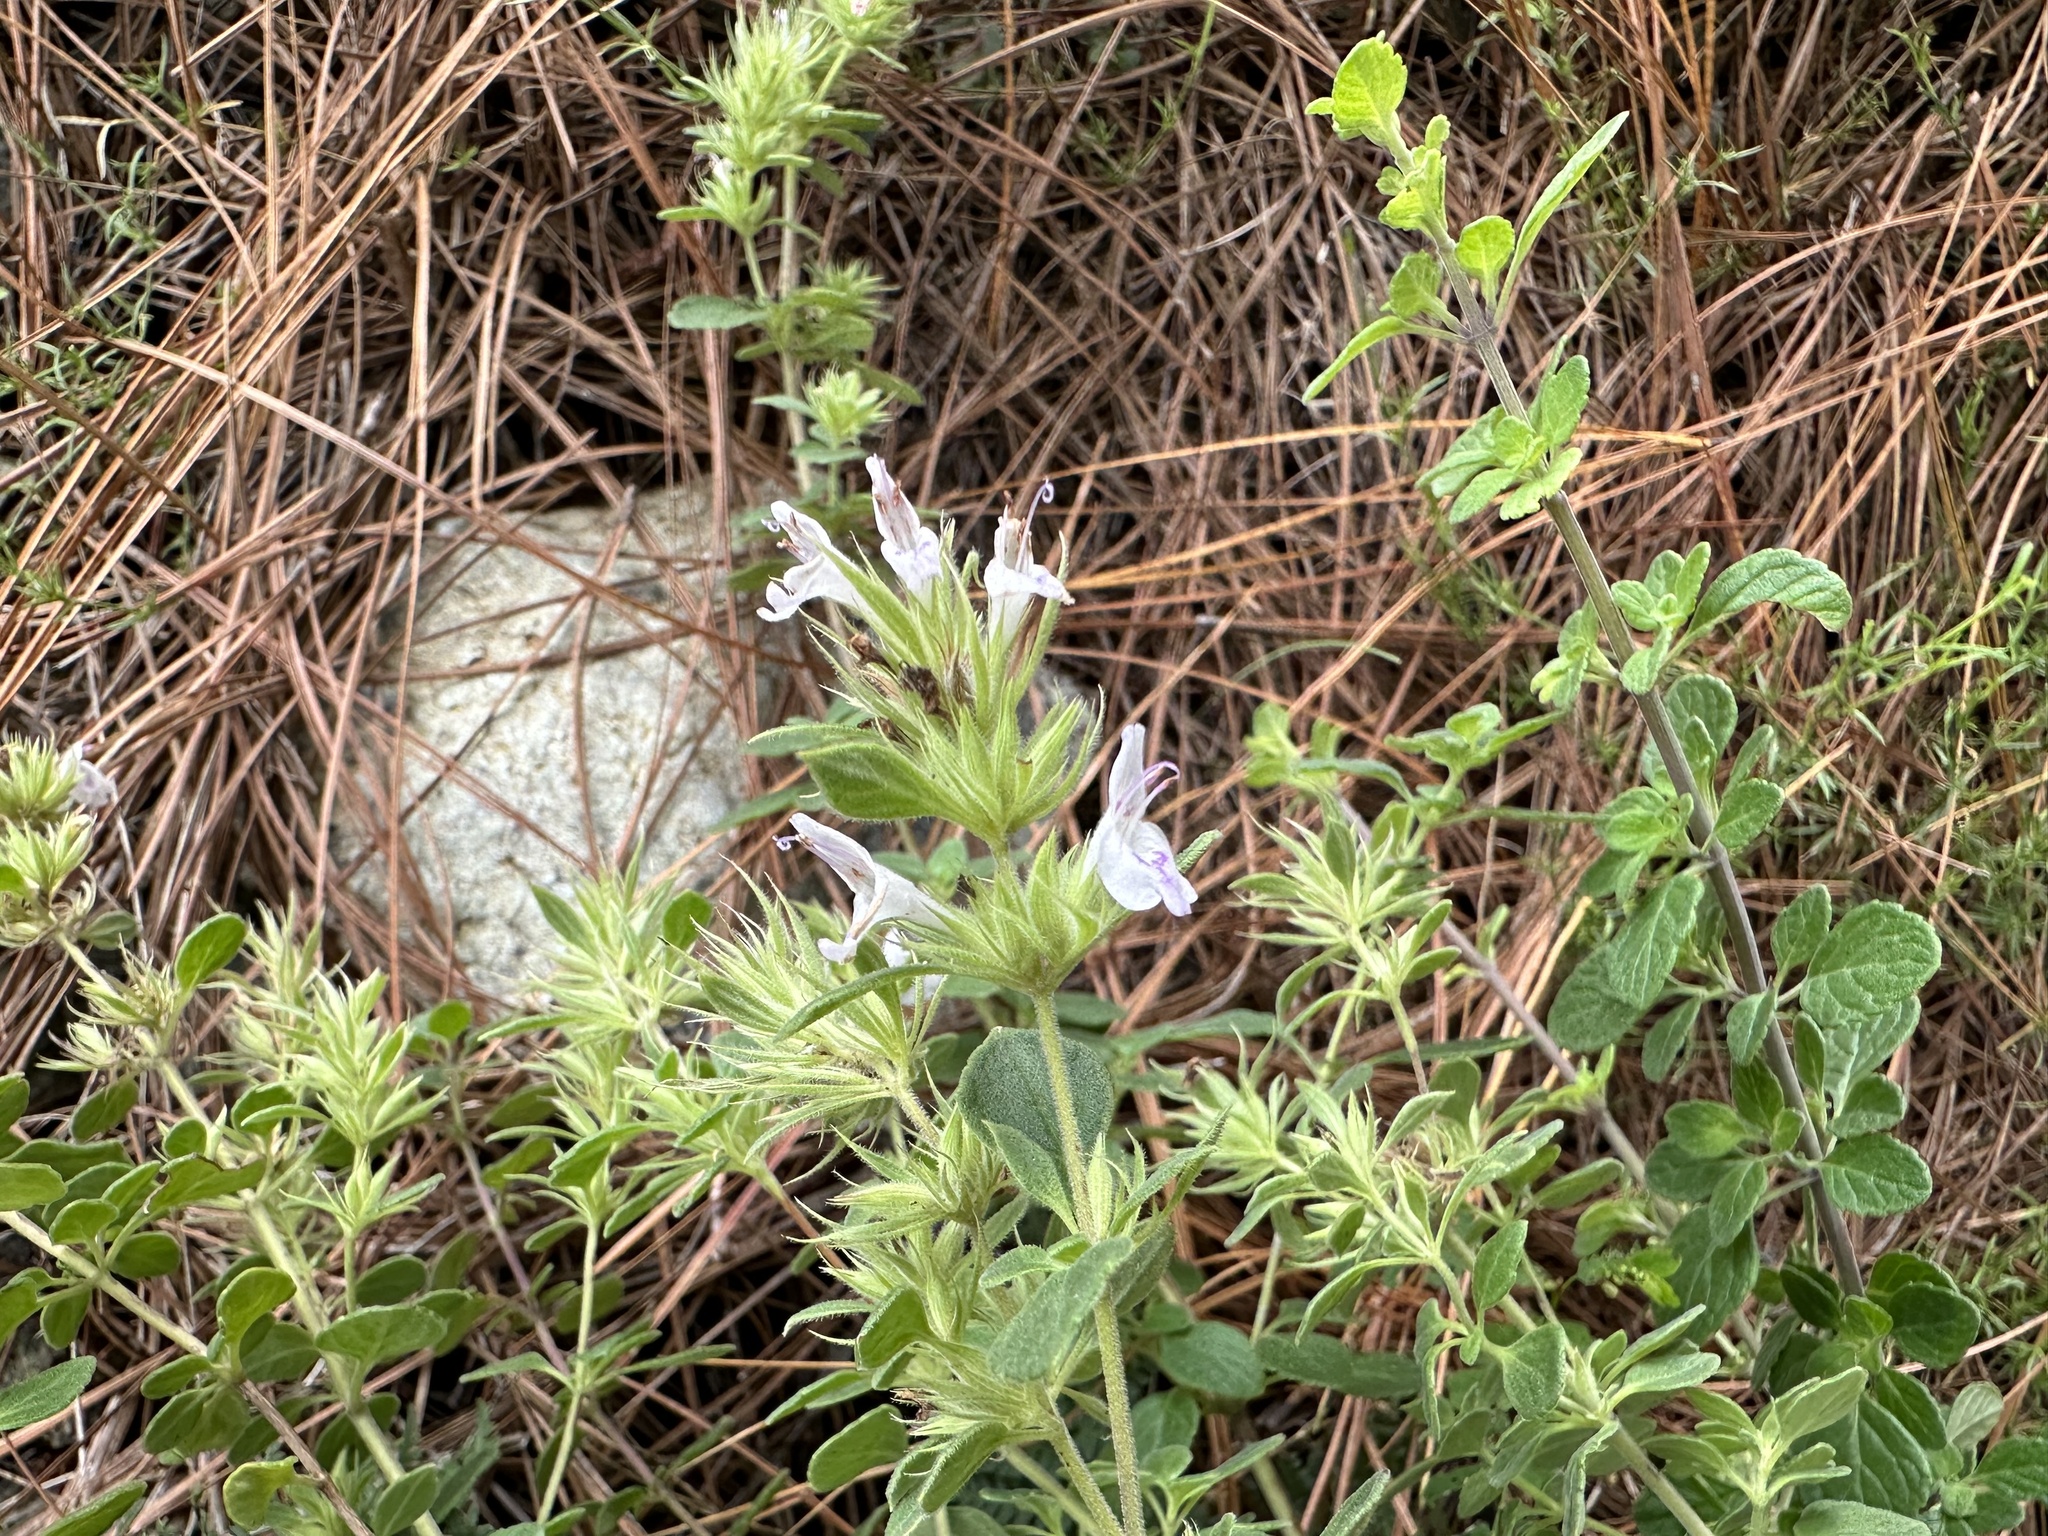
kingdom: Plantae
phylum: Tracheophyta
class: Magnoliopsida
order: Lamiales
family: Lamiaceae
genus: Hedeoma
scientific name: Hedeoma palmeri
